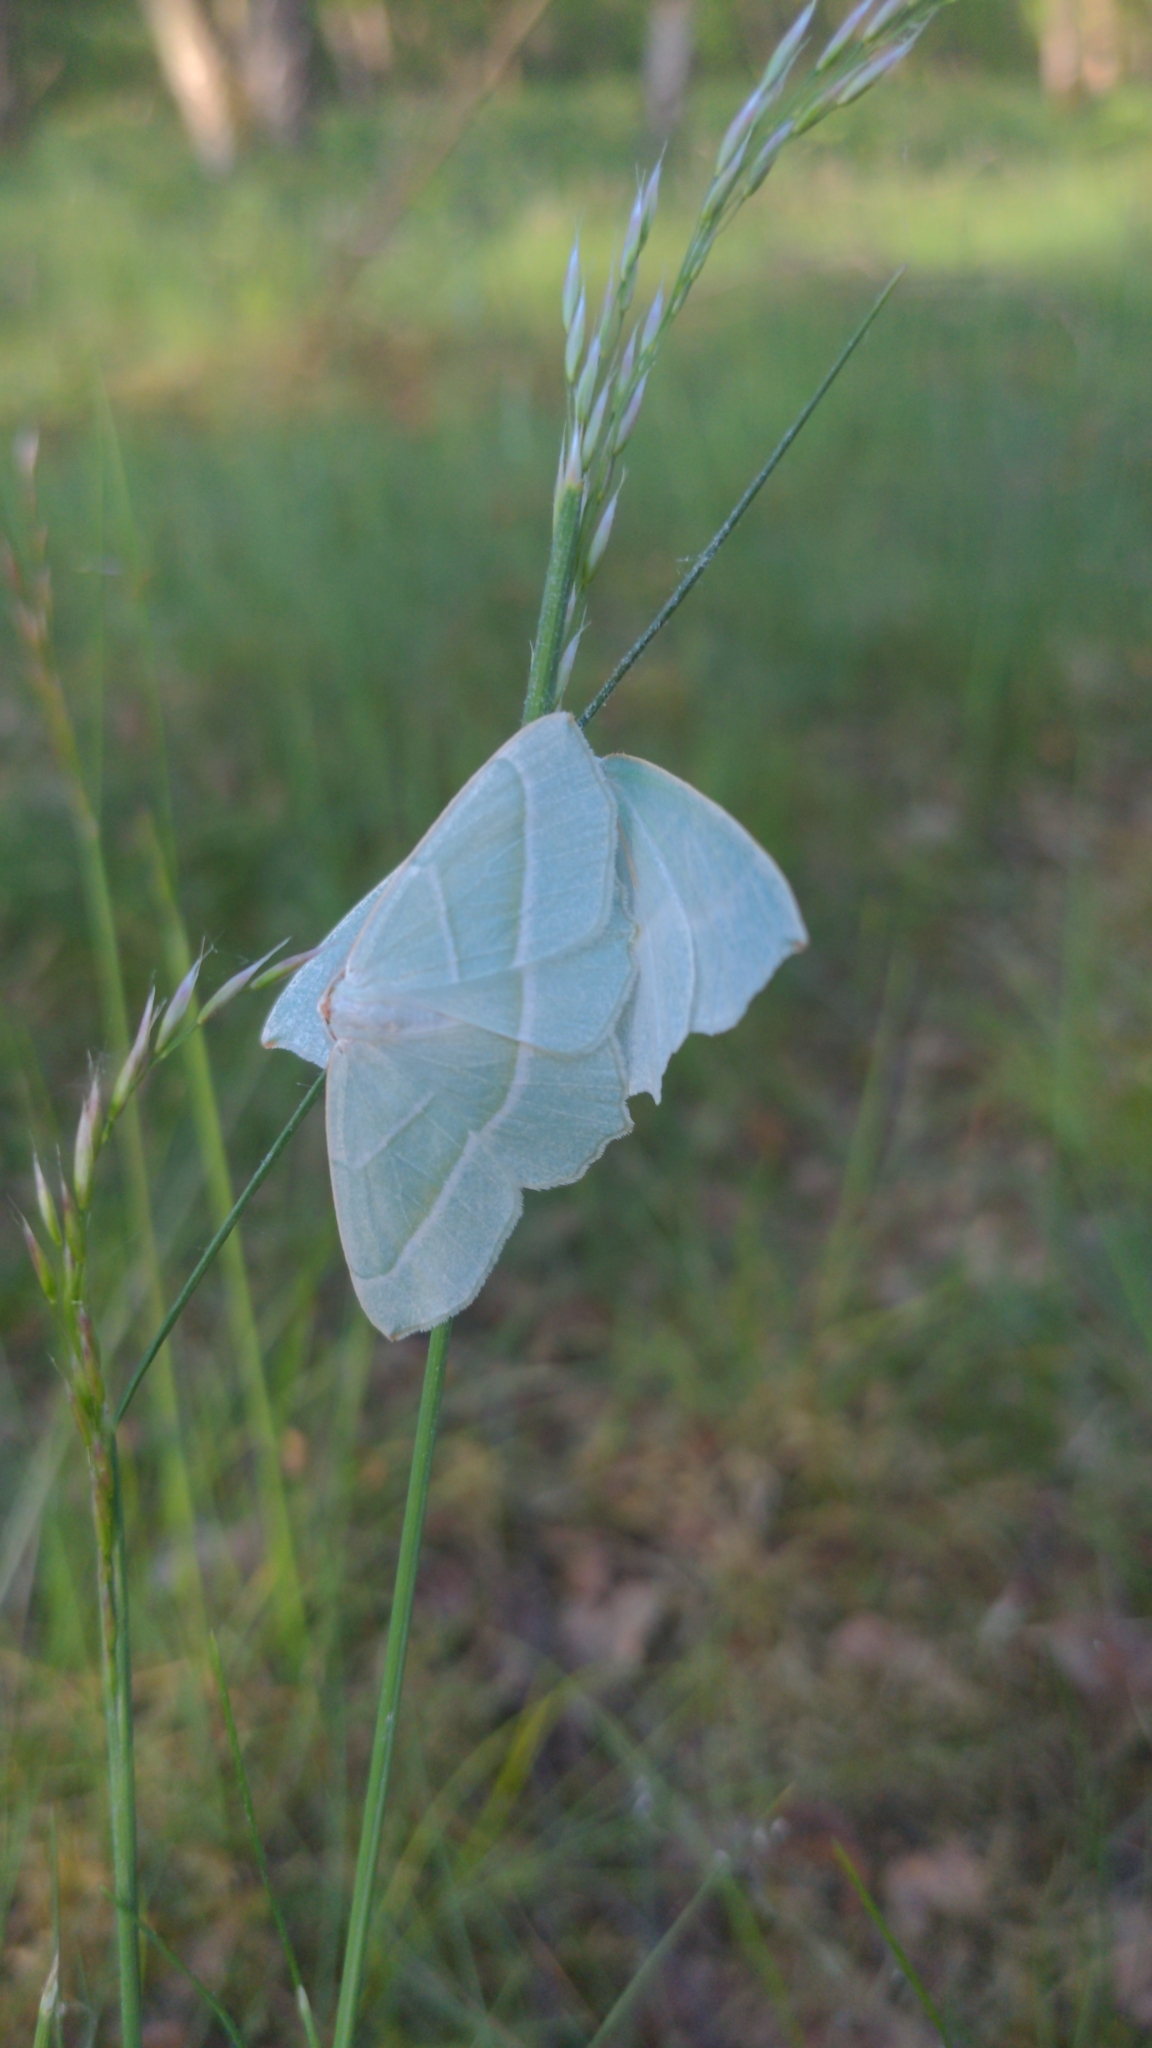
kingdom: Animalia
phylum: Arthropoda
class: Insecta
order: Lepidoptera
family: Geometridae
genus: Campaea
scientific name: Campaea margaritaria
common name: Light emerald
